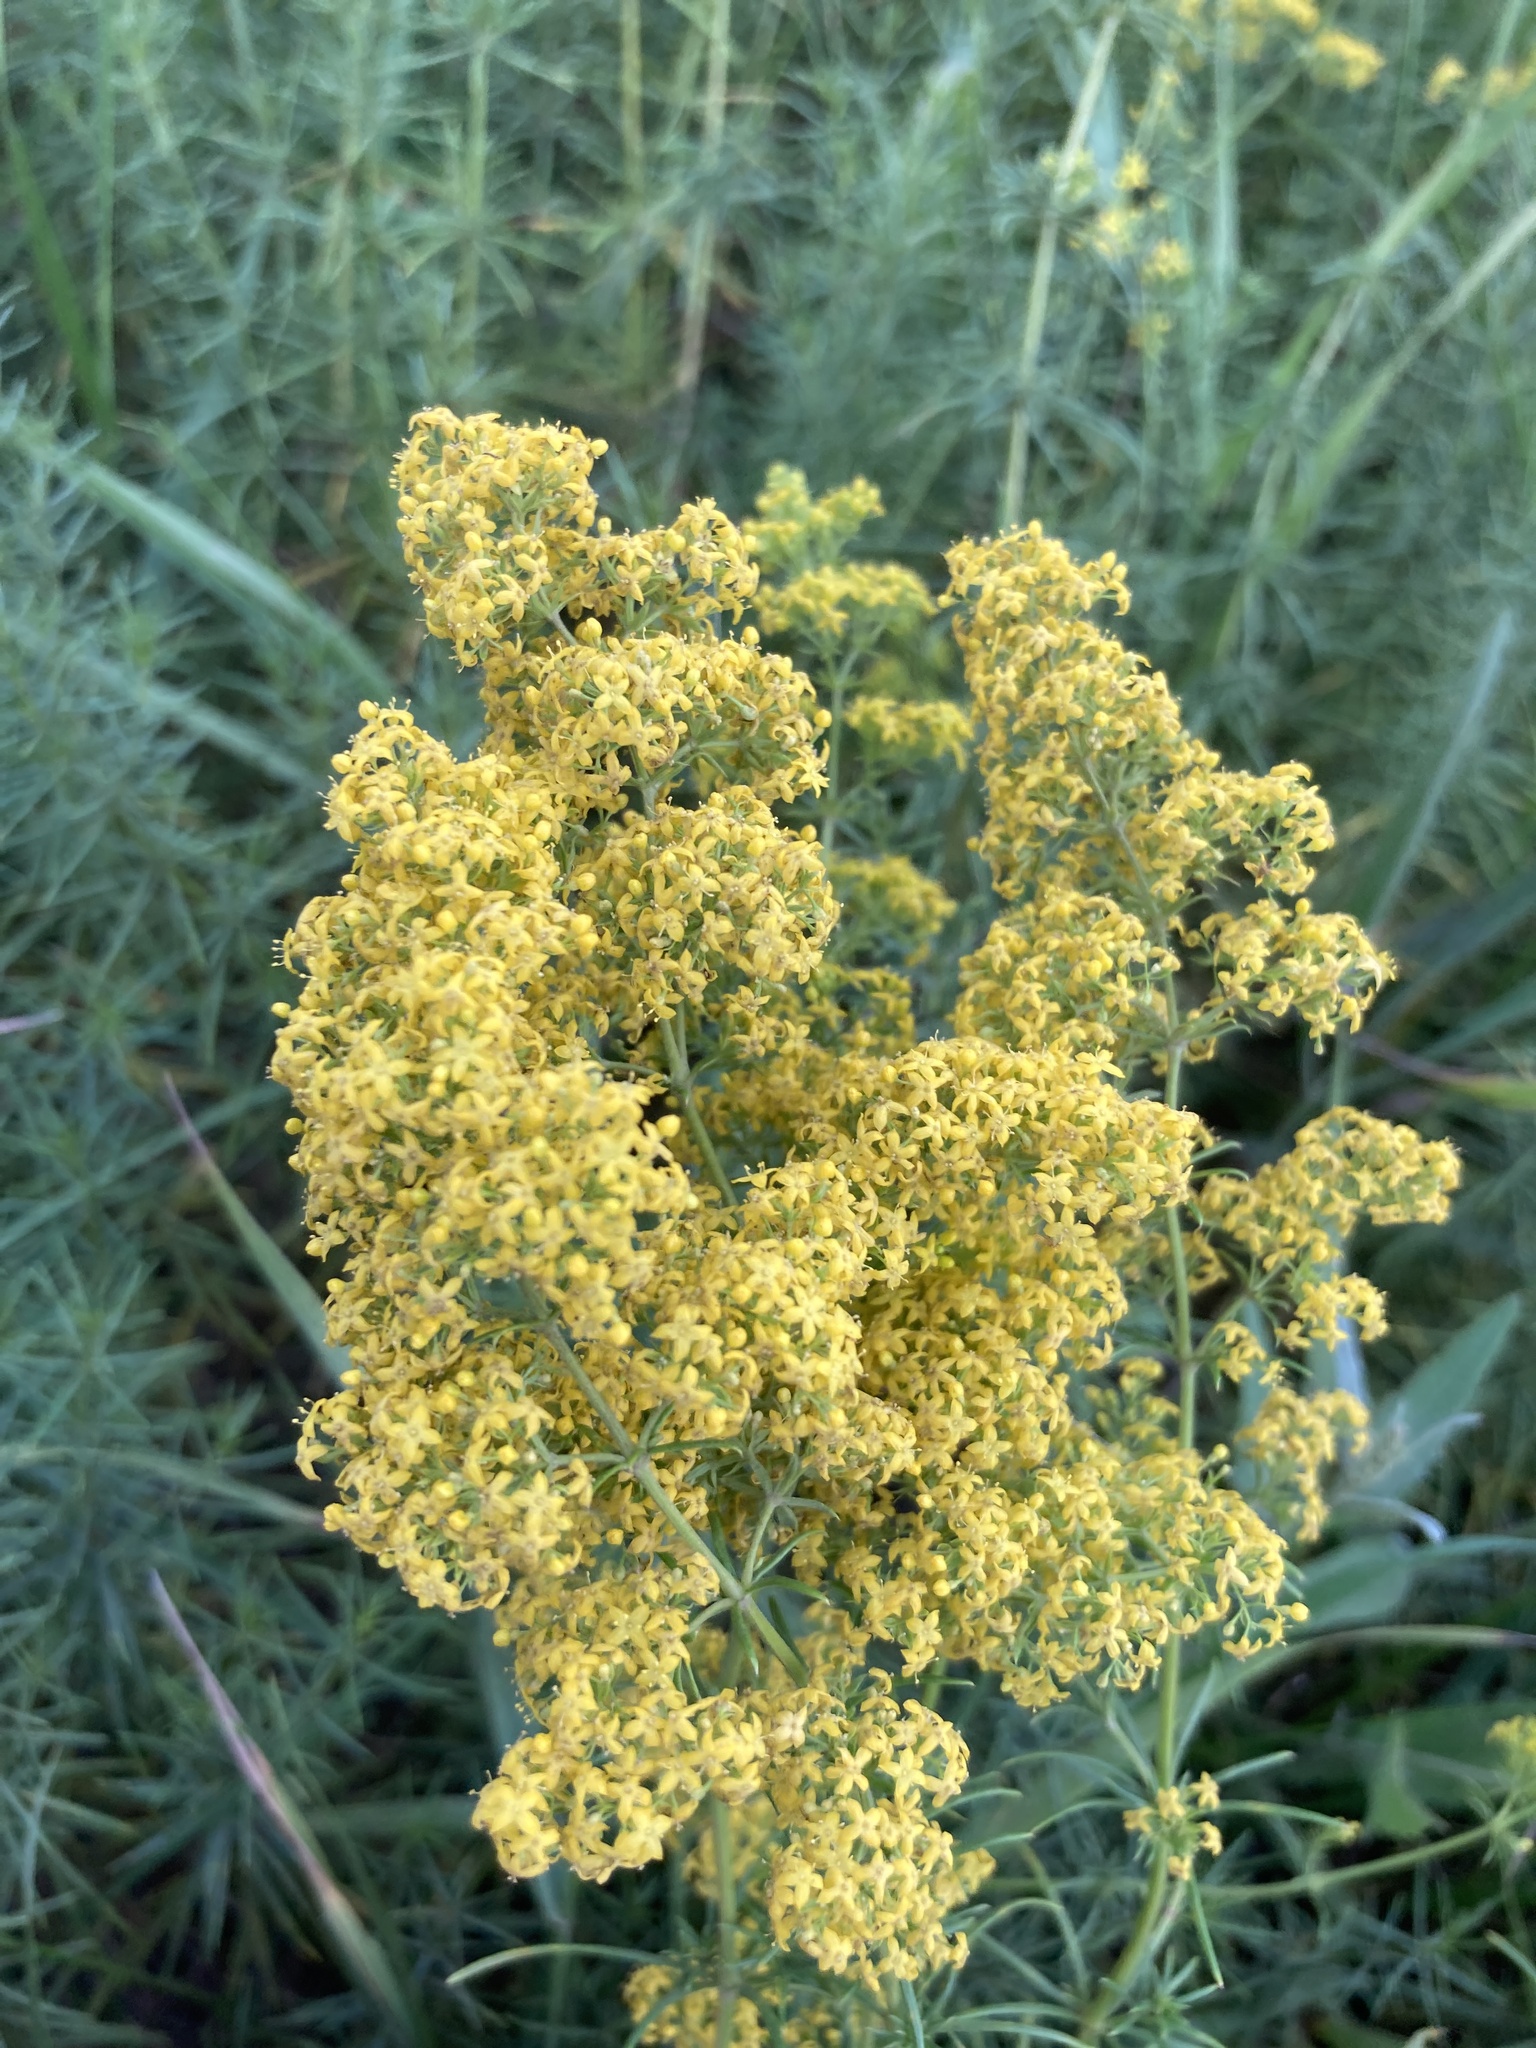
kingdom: Plantae
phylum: Tracheophyta
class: Magnoliopsida
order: Gentianales
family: Rubiaceae
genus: Galium
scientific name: Galium verum
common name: Lady's bedstraw
